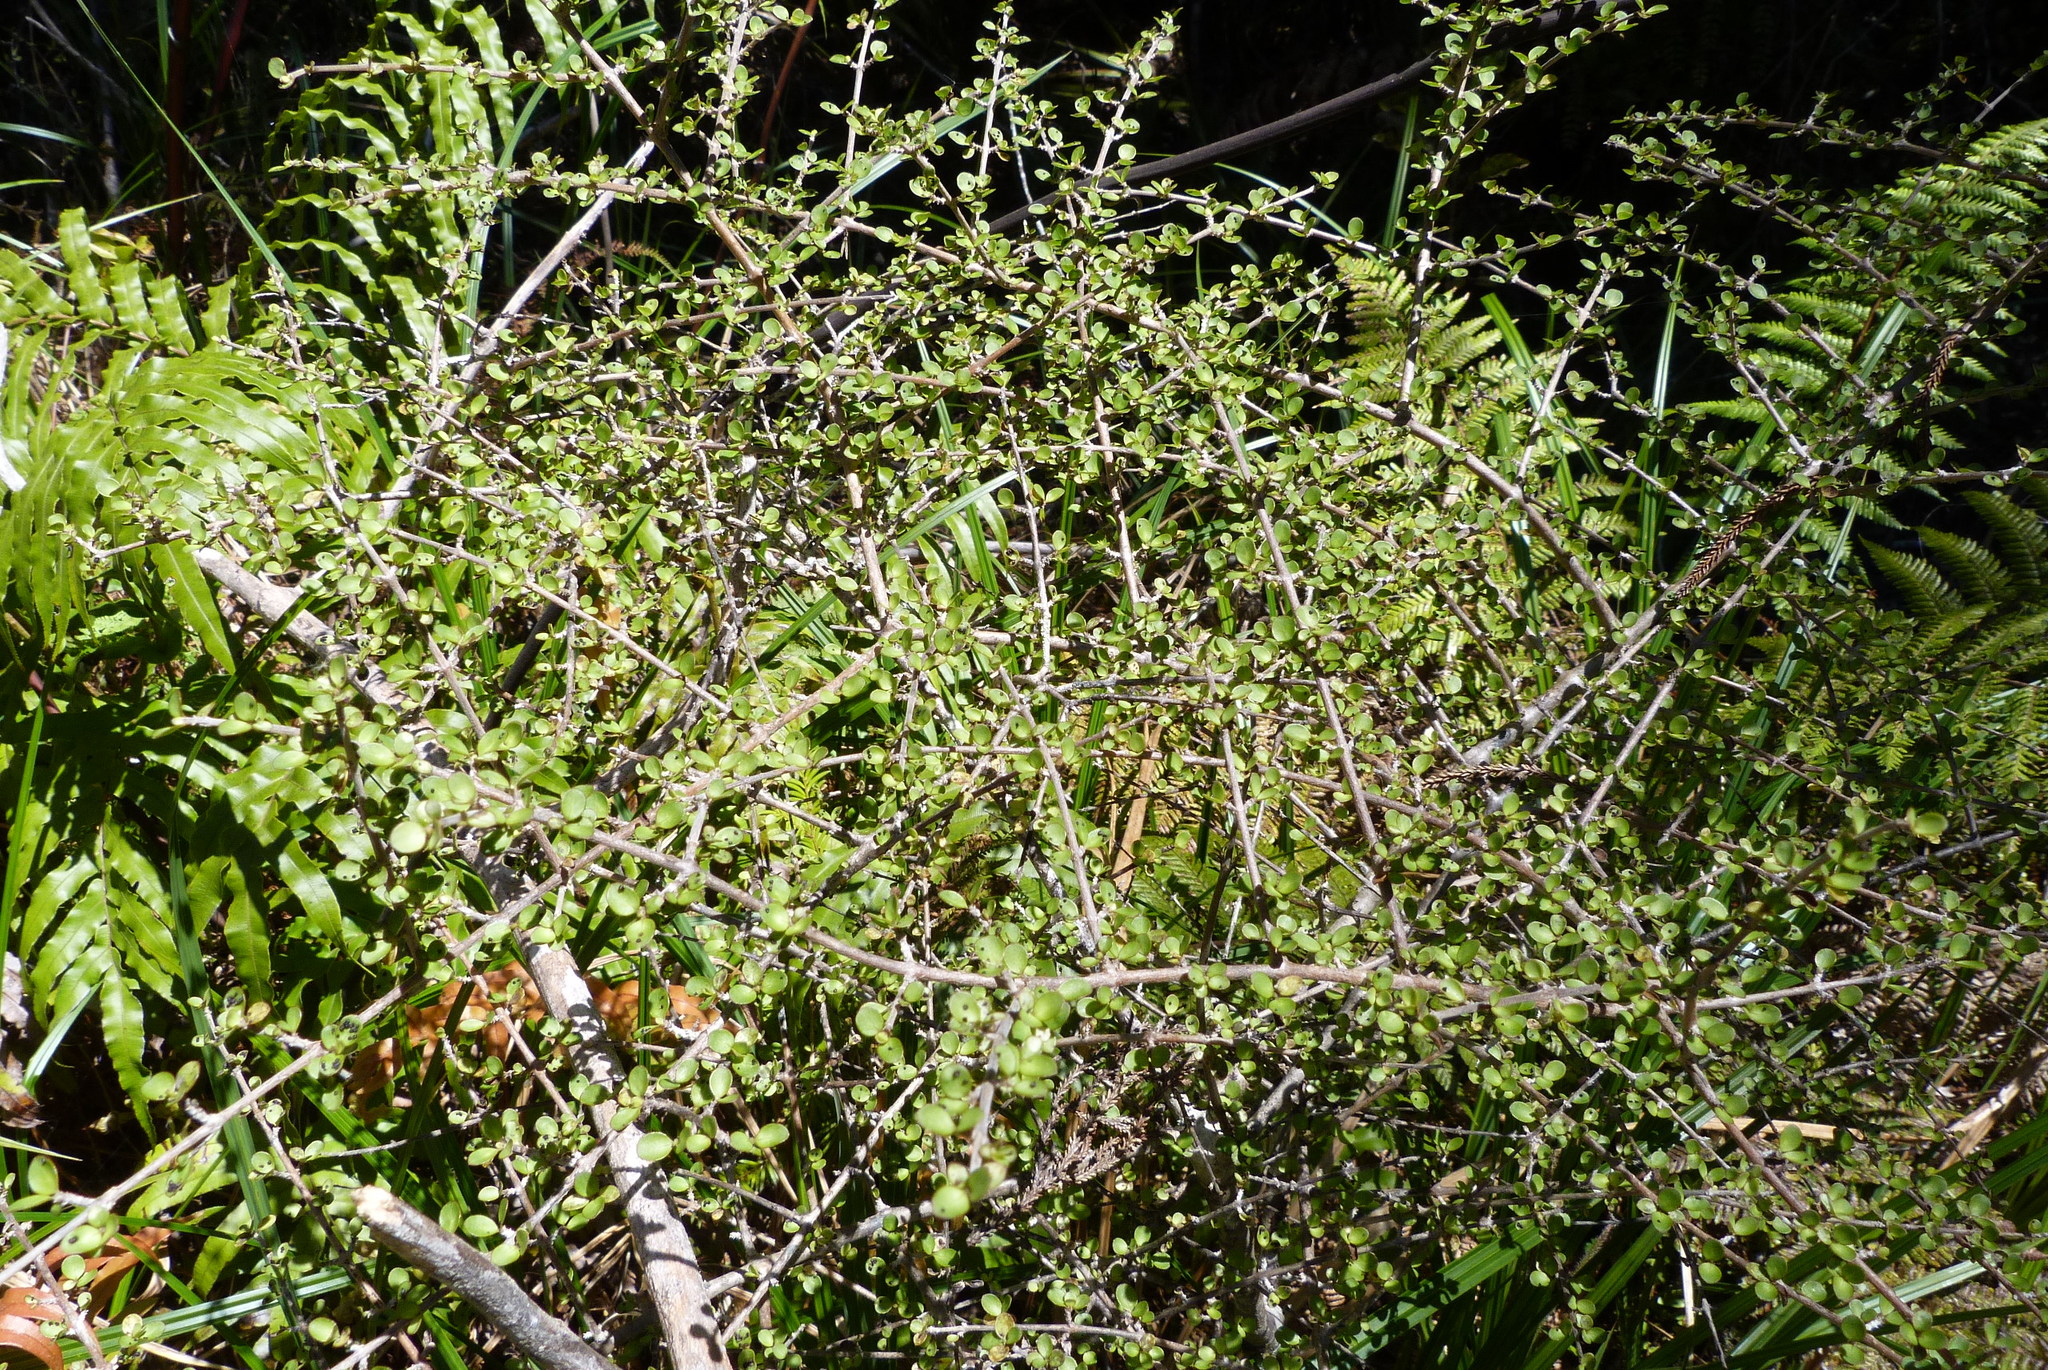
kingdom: Plantae
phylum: Tracheophyta
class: Magnoliopsida
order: Gentianales
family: Rubiaceae
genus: Coprosma
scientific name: Coprosma dumosa
